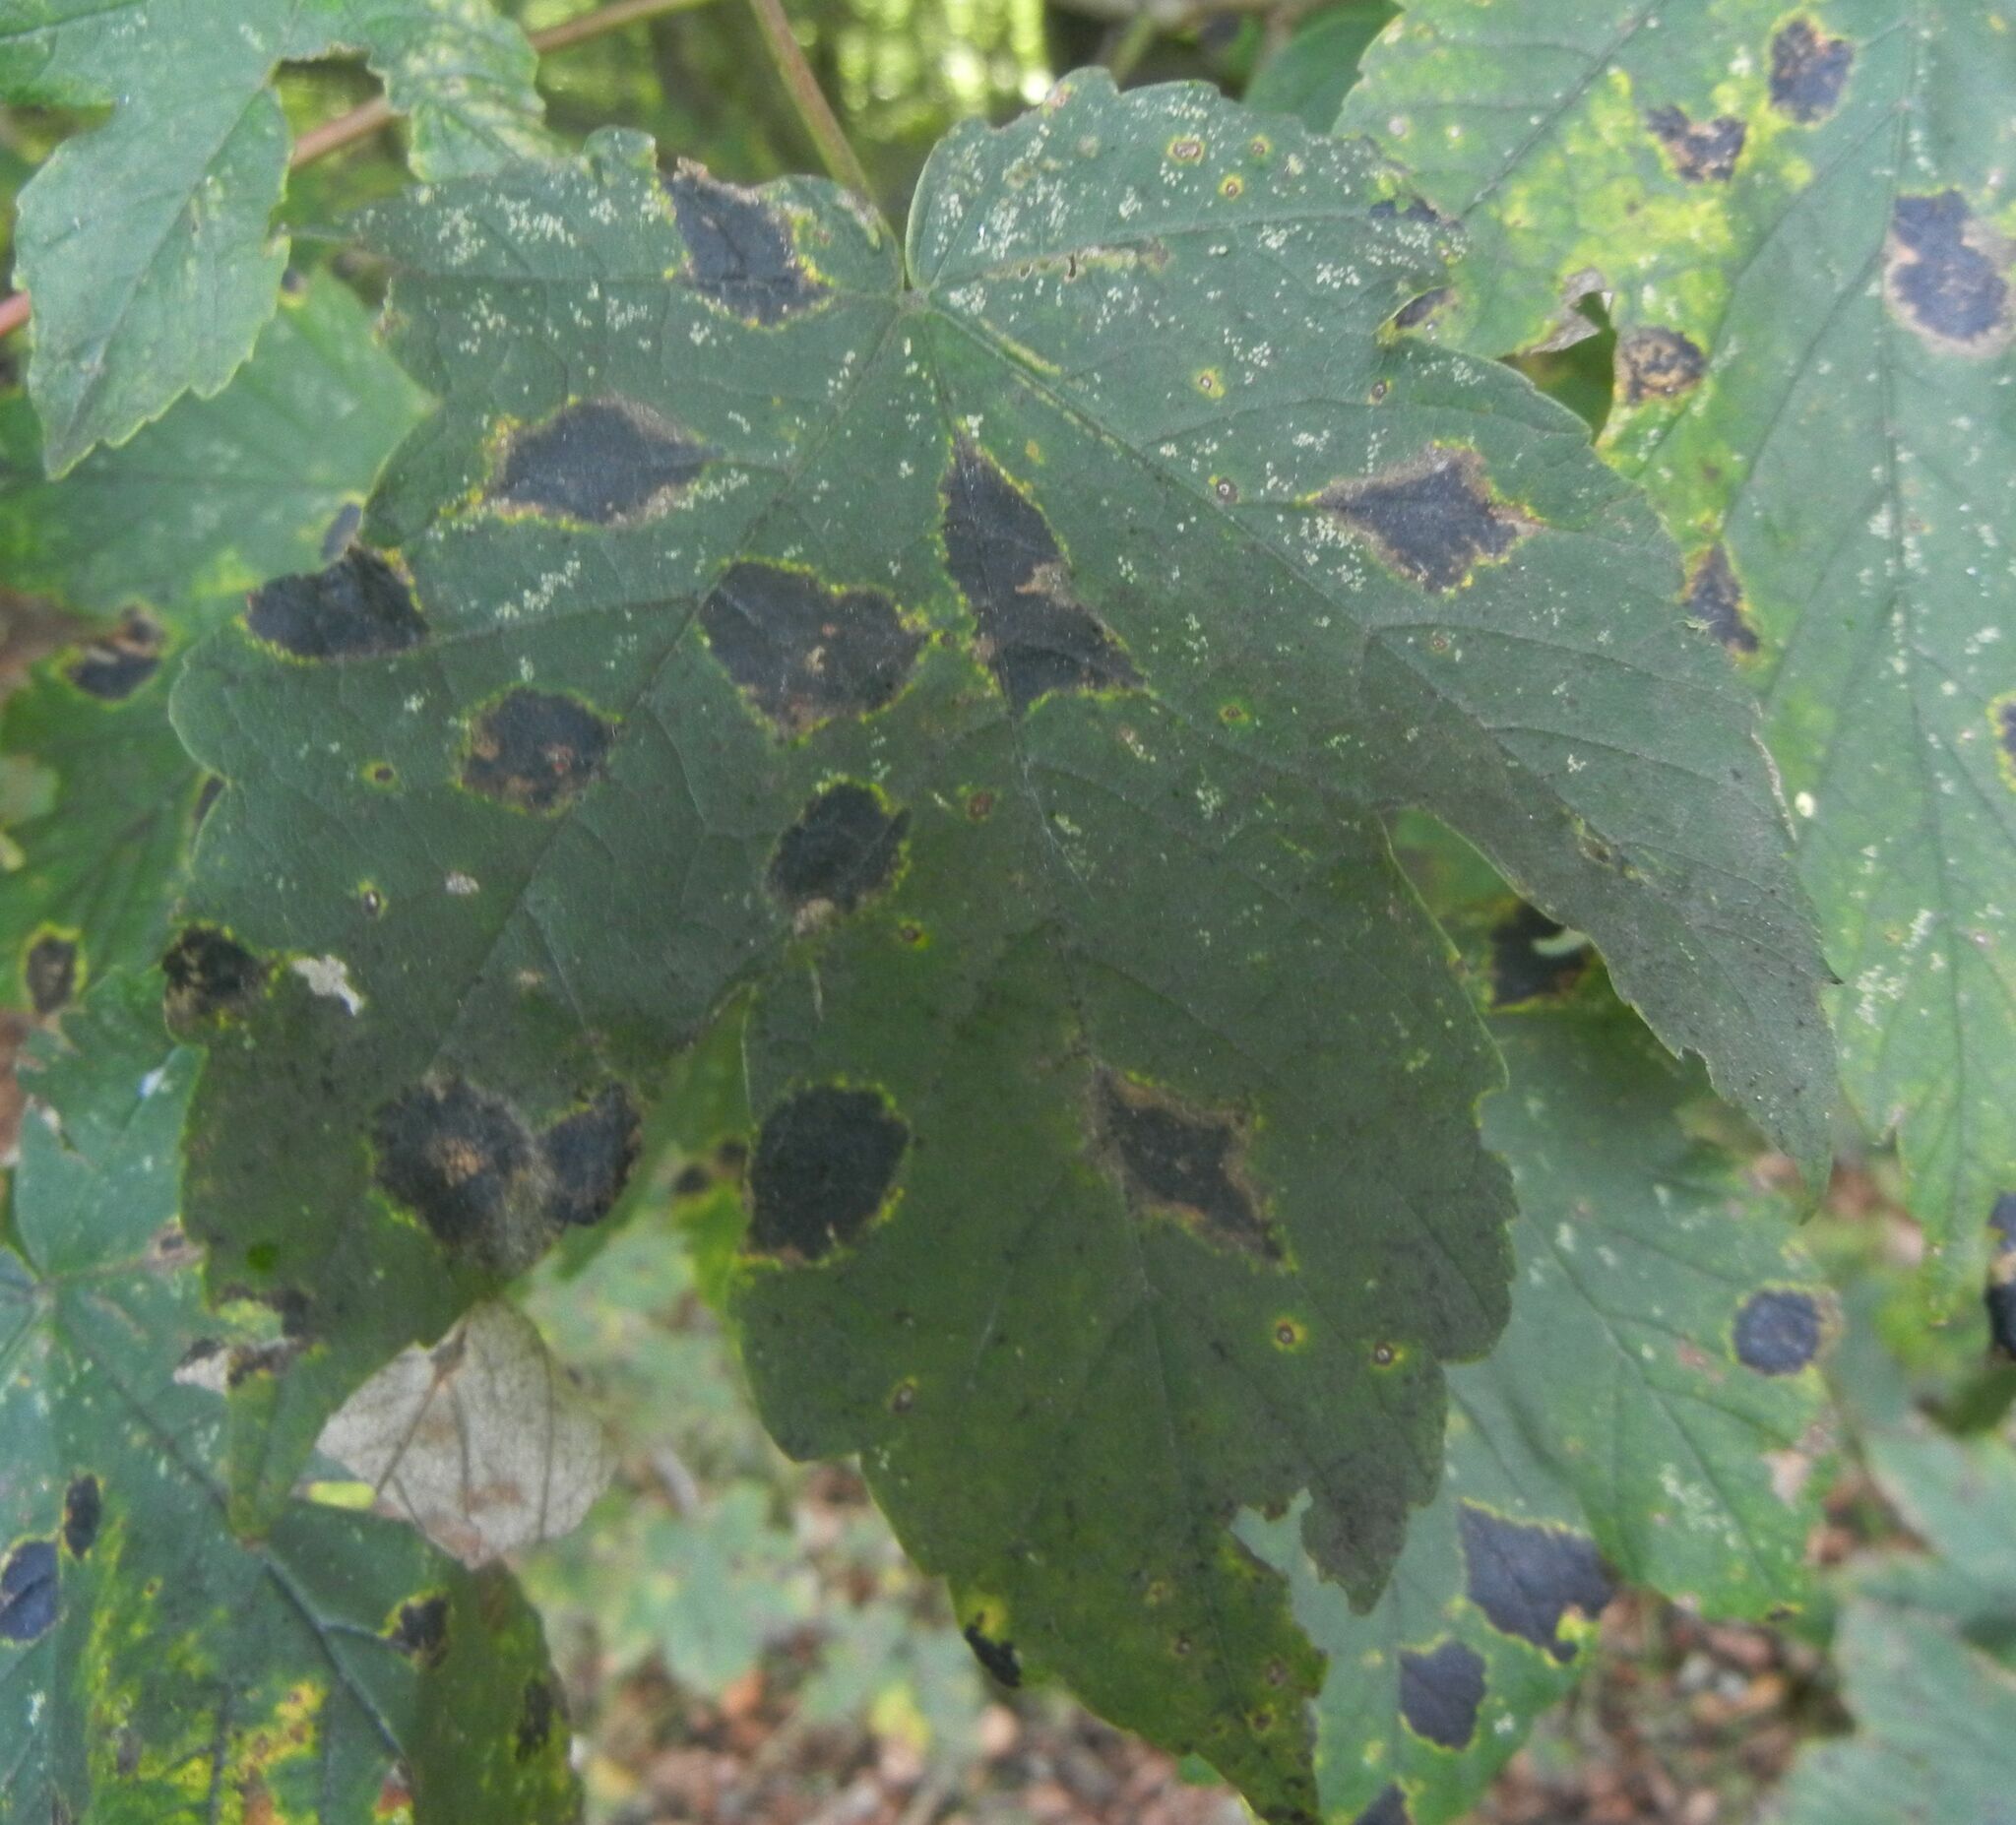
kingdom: Fungi
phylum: Ascomycota
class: Leotiomycetes
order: Rhytismatales
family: Rhytismataceae
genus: Rhytisma
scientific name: Rhytisma acerinum
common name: European tar spot
